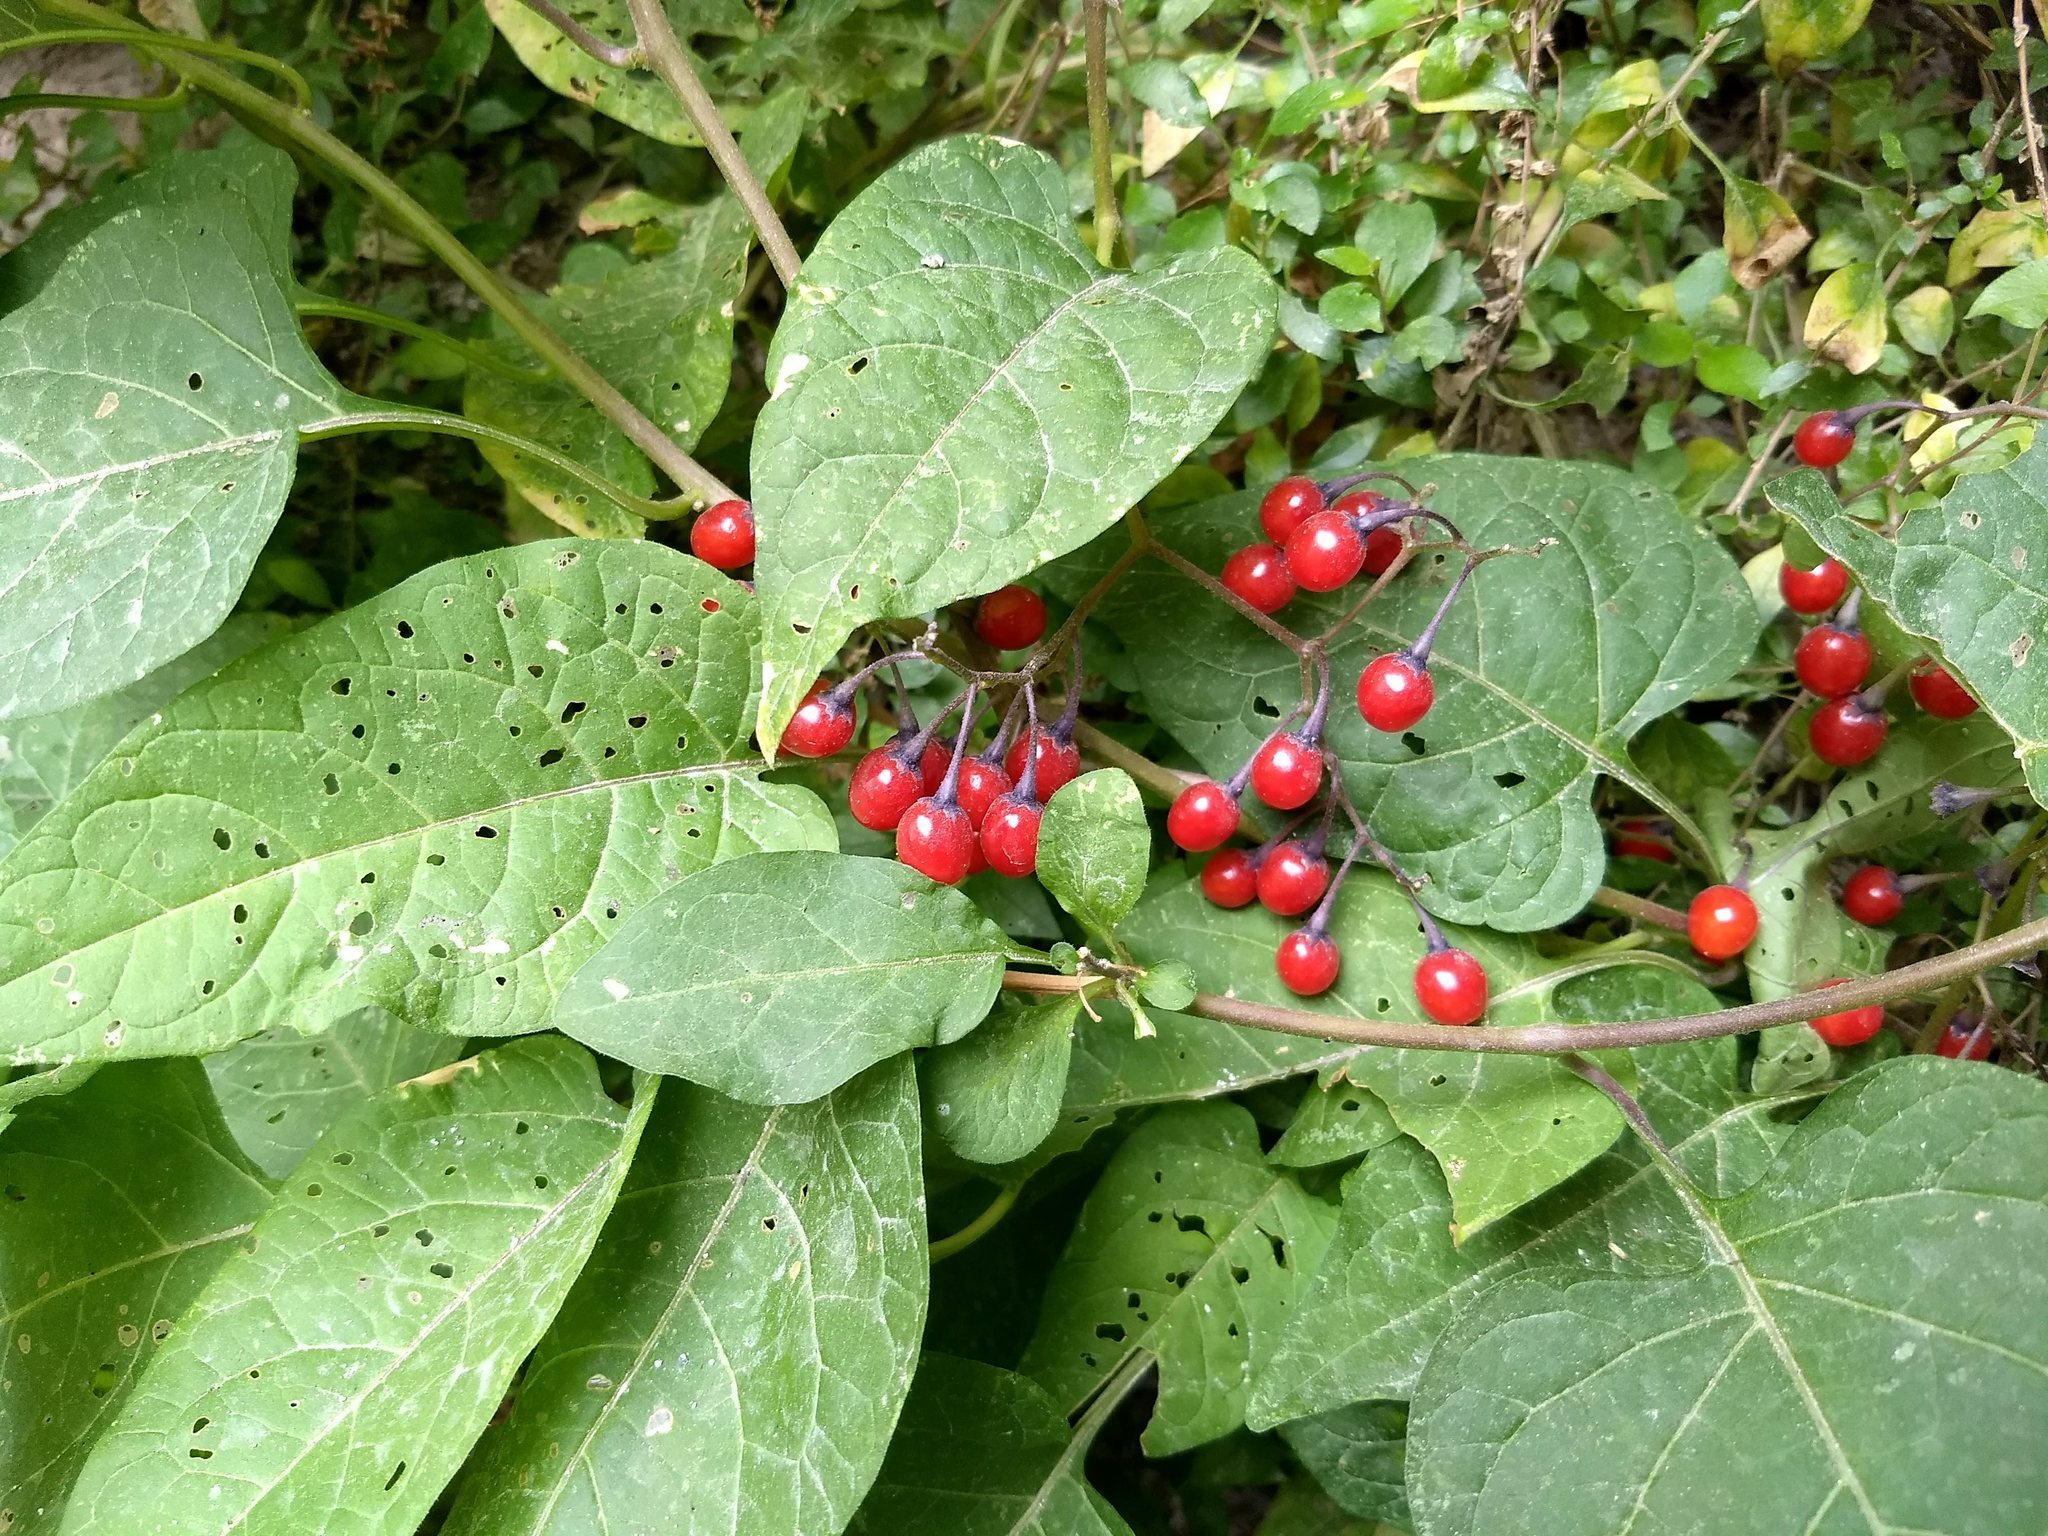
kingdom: Plantae
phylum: Tracheophyta
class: Magnoliopsida
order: Solanales
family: Solanaceae
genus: Solanum
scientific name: Solanum dulcamara
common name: Climbing nightshade
